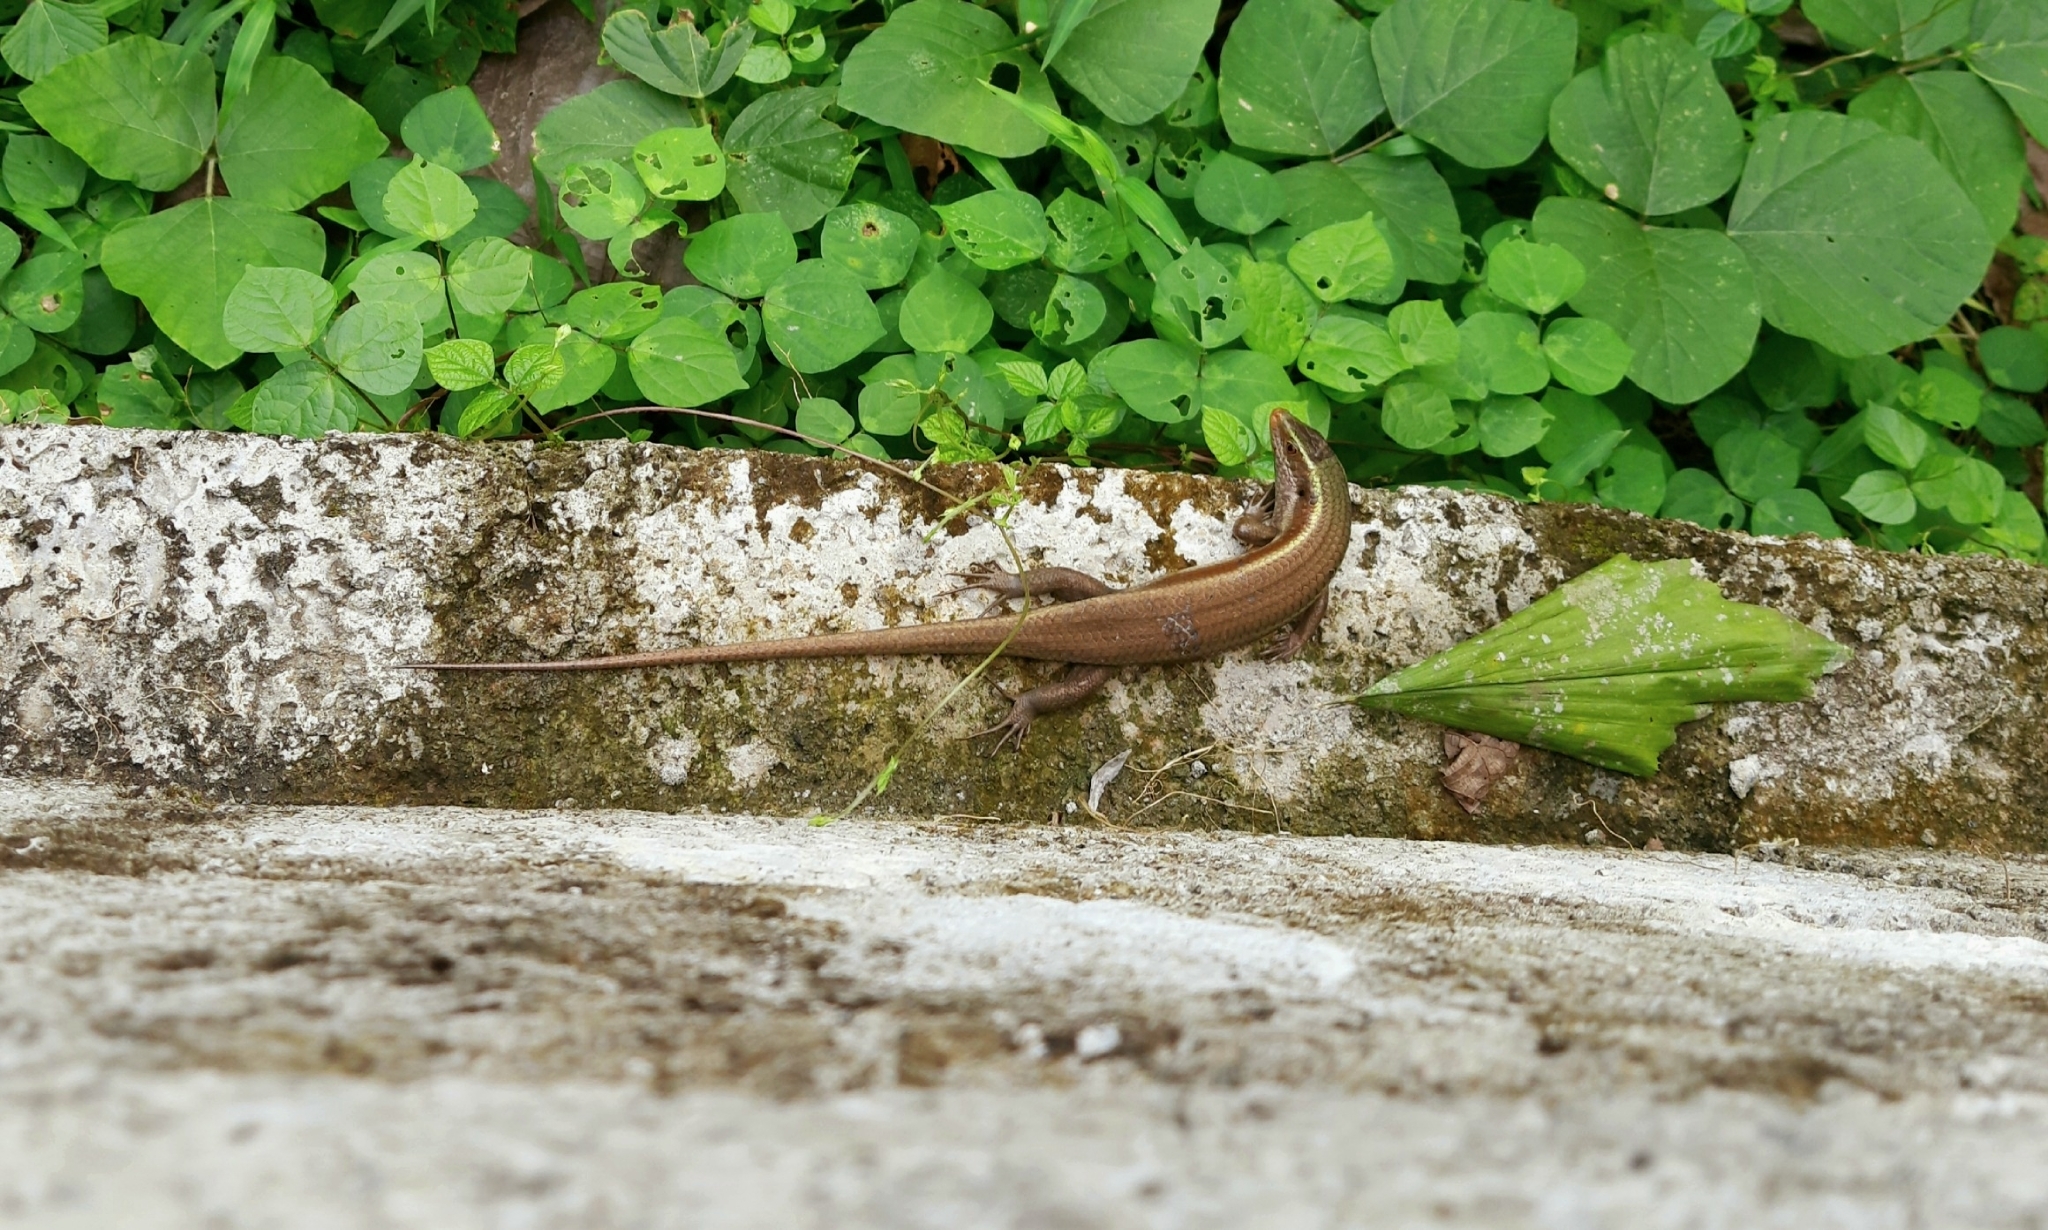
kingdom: Animalia
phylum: Chordata
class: Squamata
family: Scincidae
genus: Eutropis
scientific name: Eutropis carinata
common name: Keeled indian mabuya
